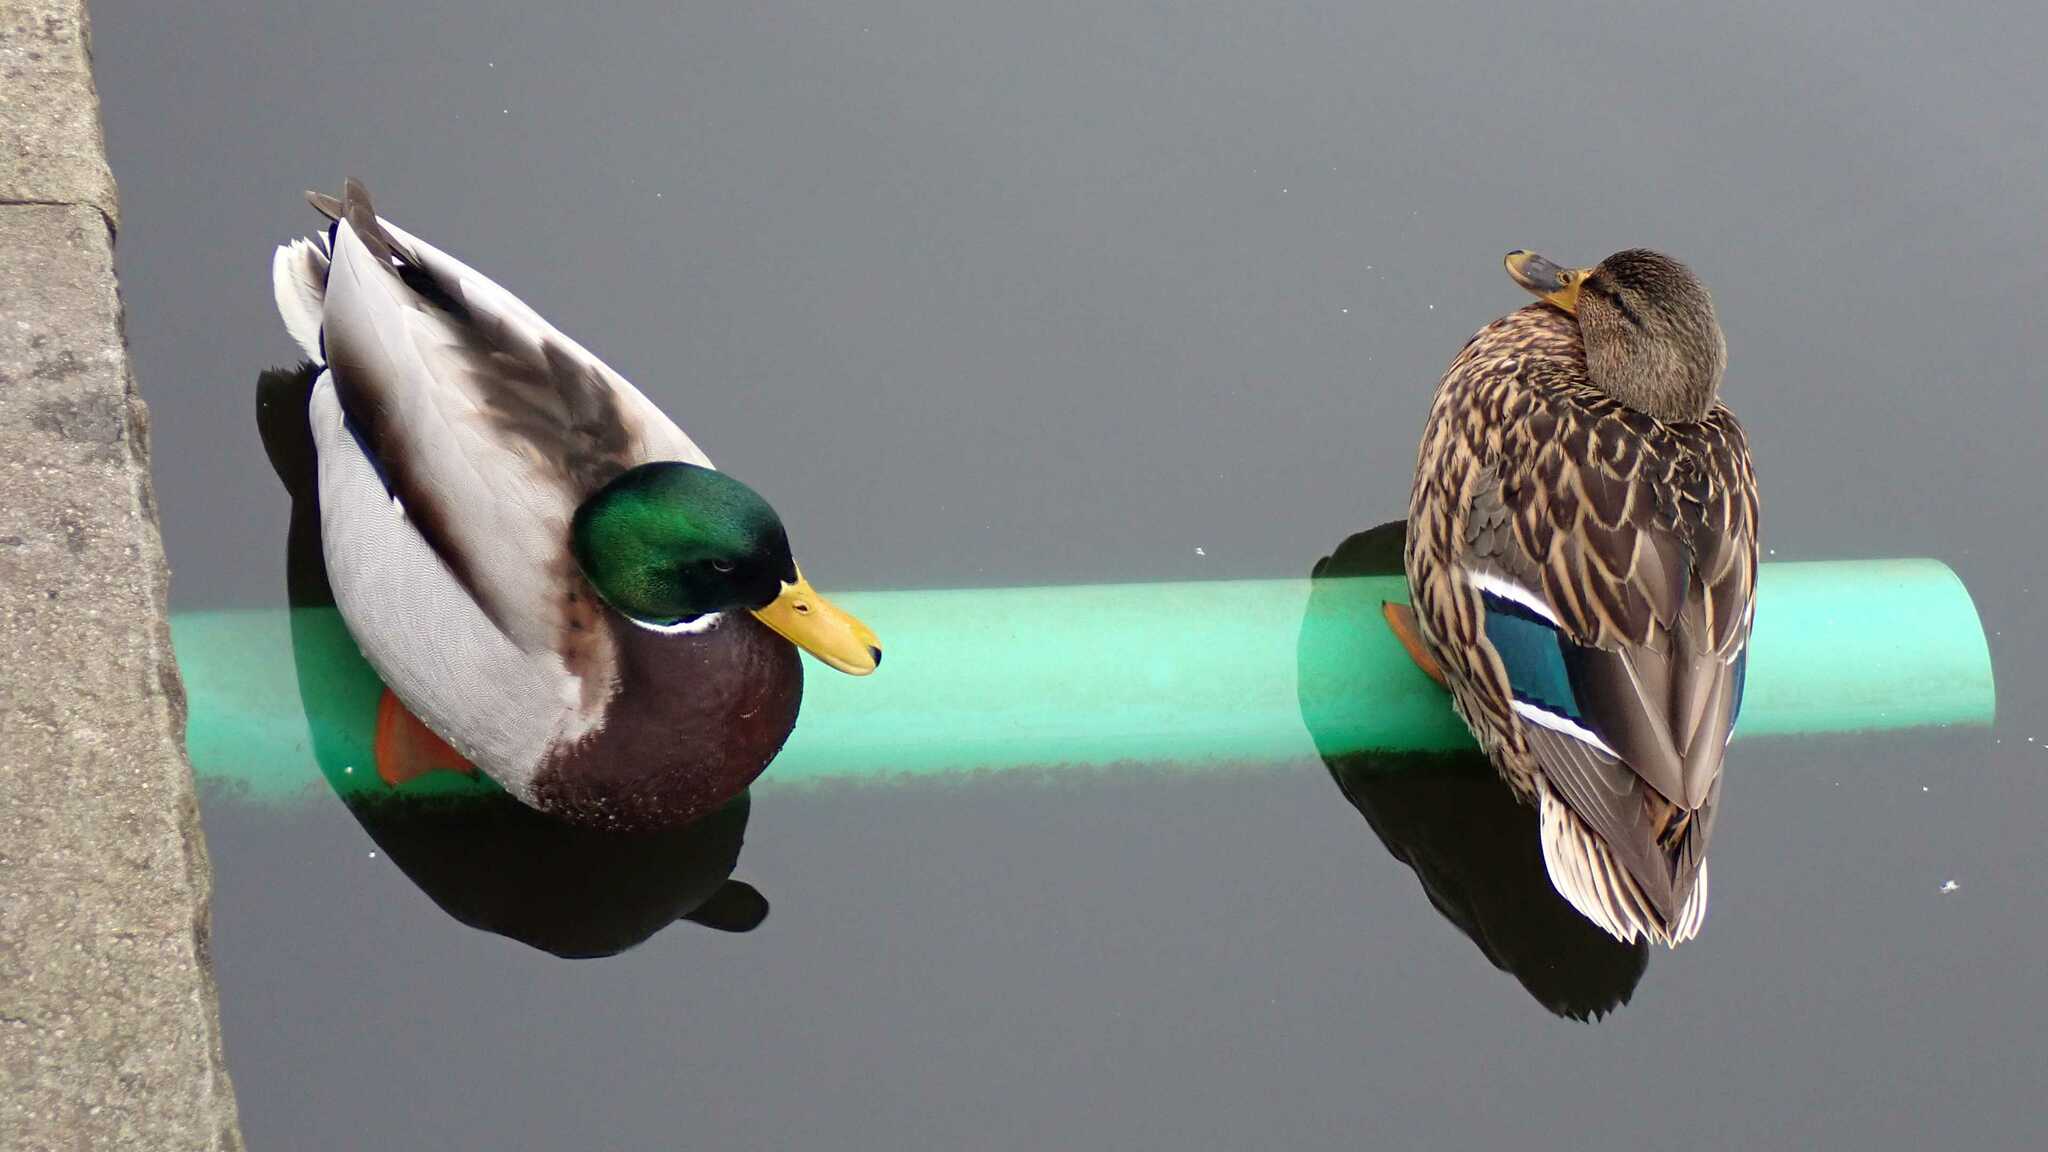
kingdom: Animalia
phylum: Chordata
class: Aves
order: Anseriformes
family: Anatidae
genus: Anas
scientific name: Anas platyrhynchos
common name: Mallard
